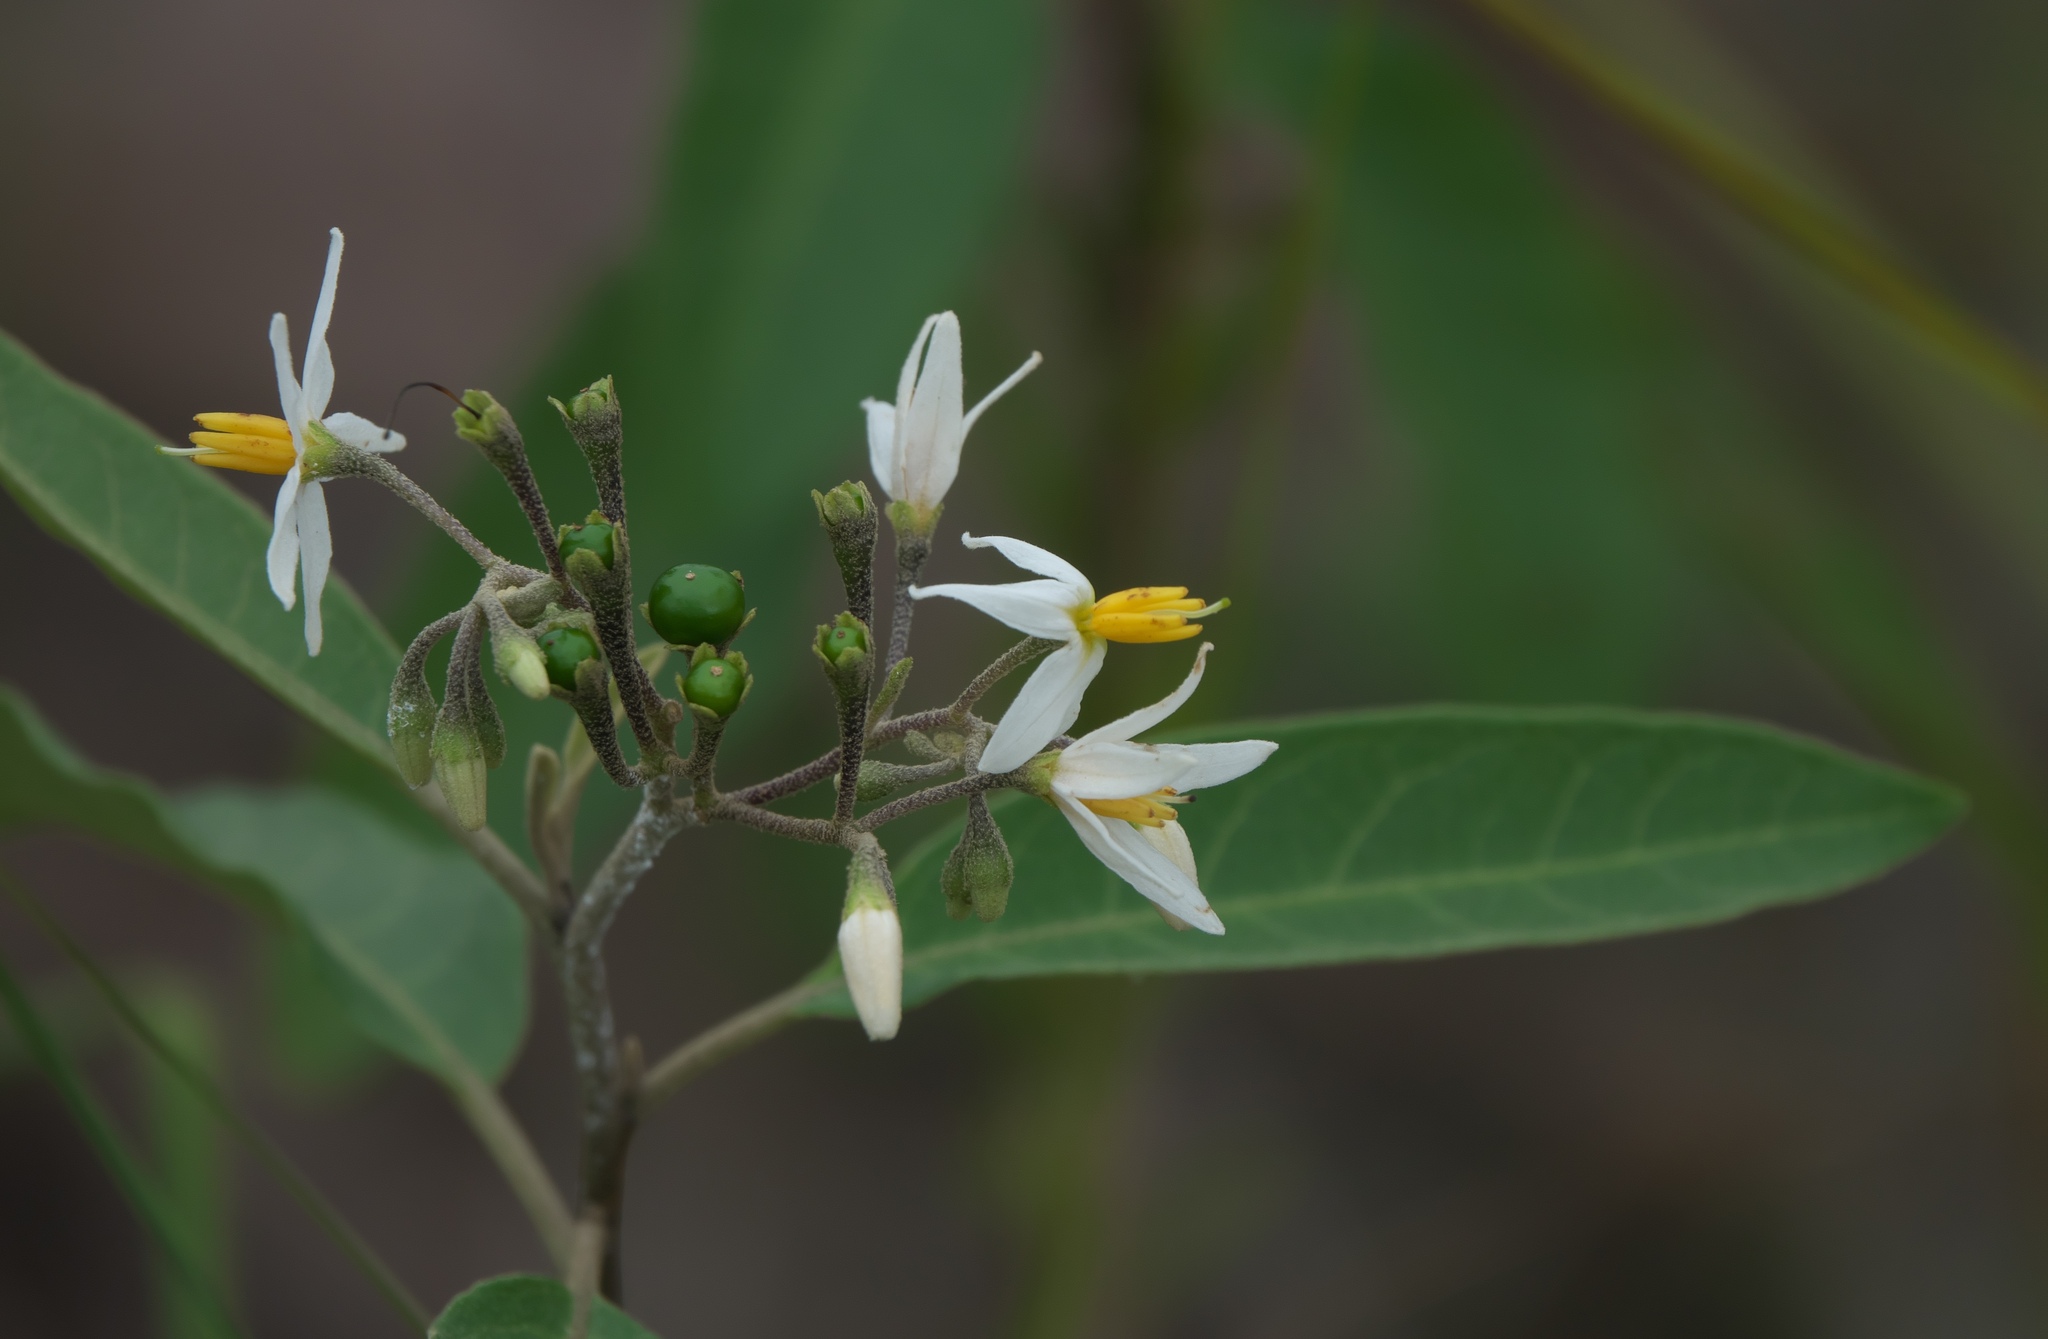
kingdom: Plantae
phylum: Tracheophyta
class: Magnoliopsida
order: Solanales
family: Solanaceae
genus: Solanum
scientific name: Solanum donianum
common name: Mullein nightshade
